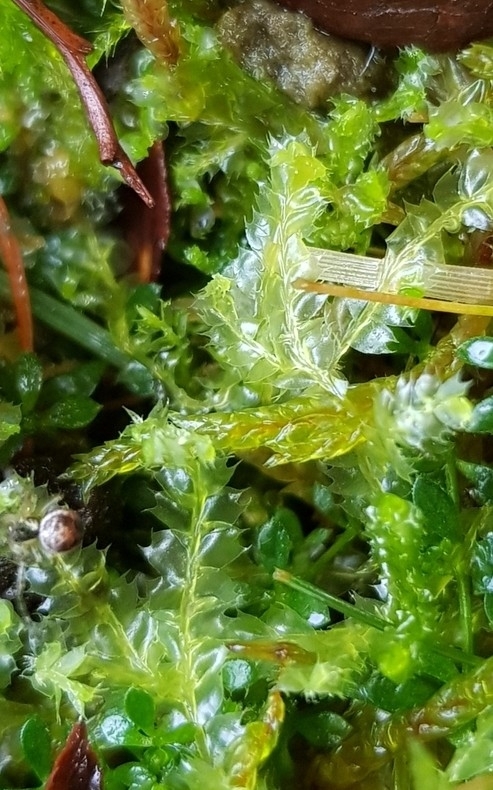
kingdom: Plantae
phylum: Marchantiophyta
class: Jungermanniopsida
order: Jungermanniales
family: Lophocoleaceae
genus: Lophocolea
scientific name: Lophocolea bidentata
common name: Bifid crestwort
